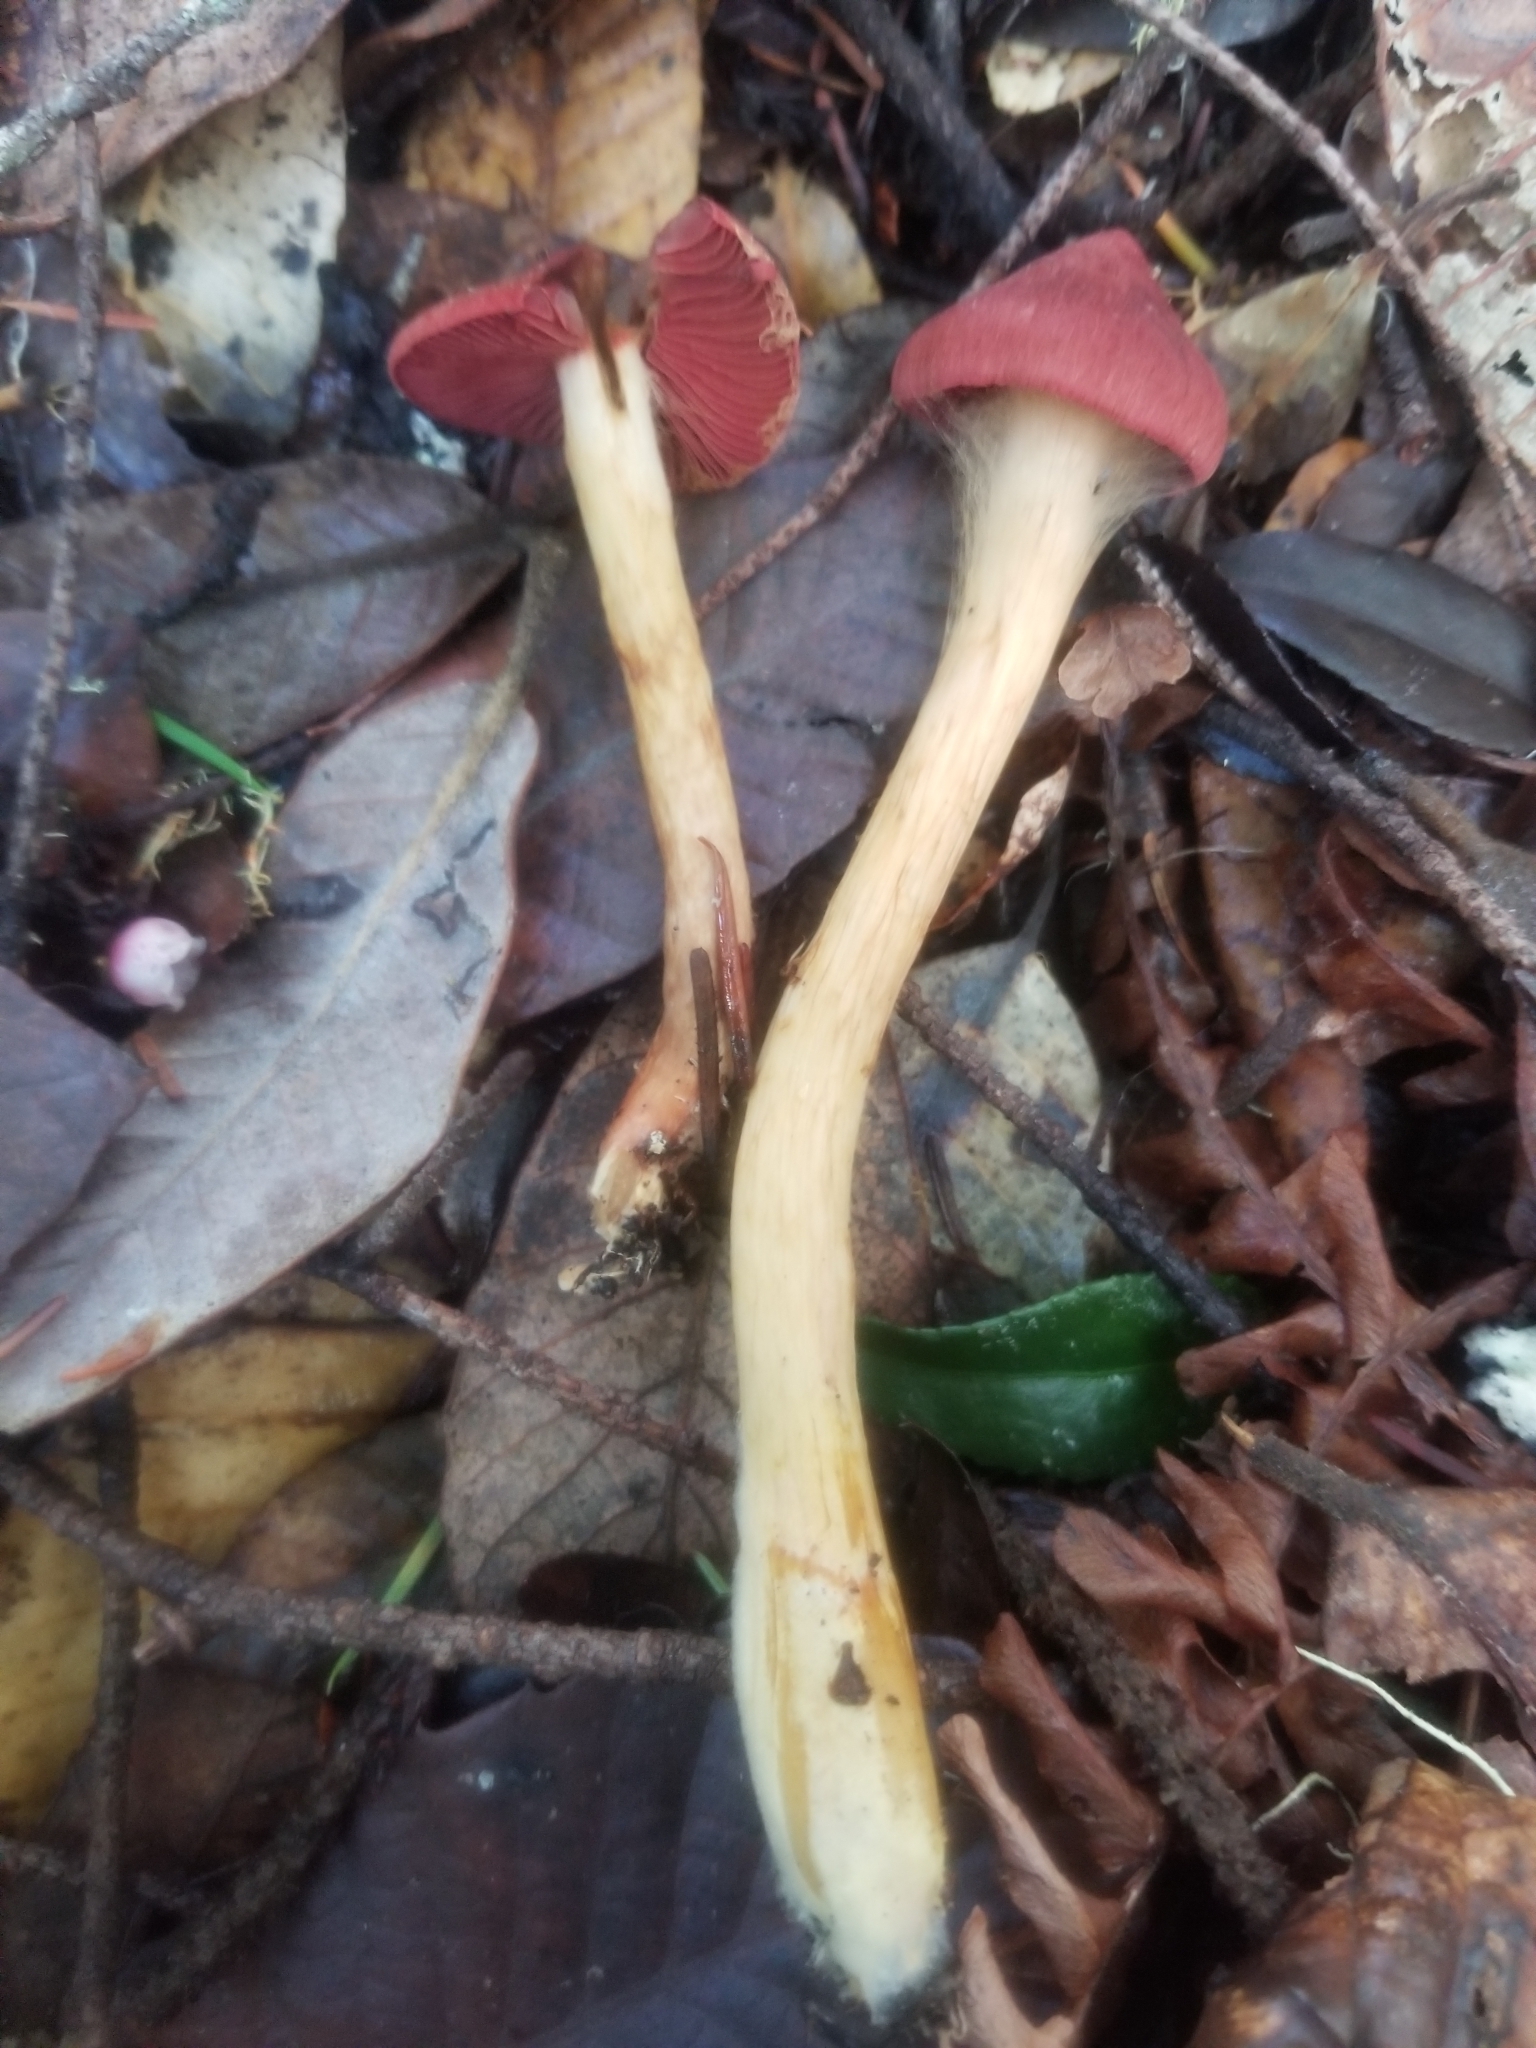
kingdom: Fungi
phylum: Basidiomycota
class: Agaricomycetes
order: Agaricales
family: Cortinariaceae
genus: Cortinarius
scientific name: Cortinarius smithii
